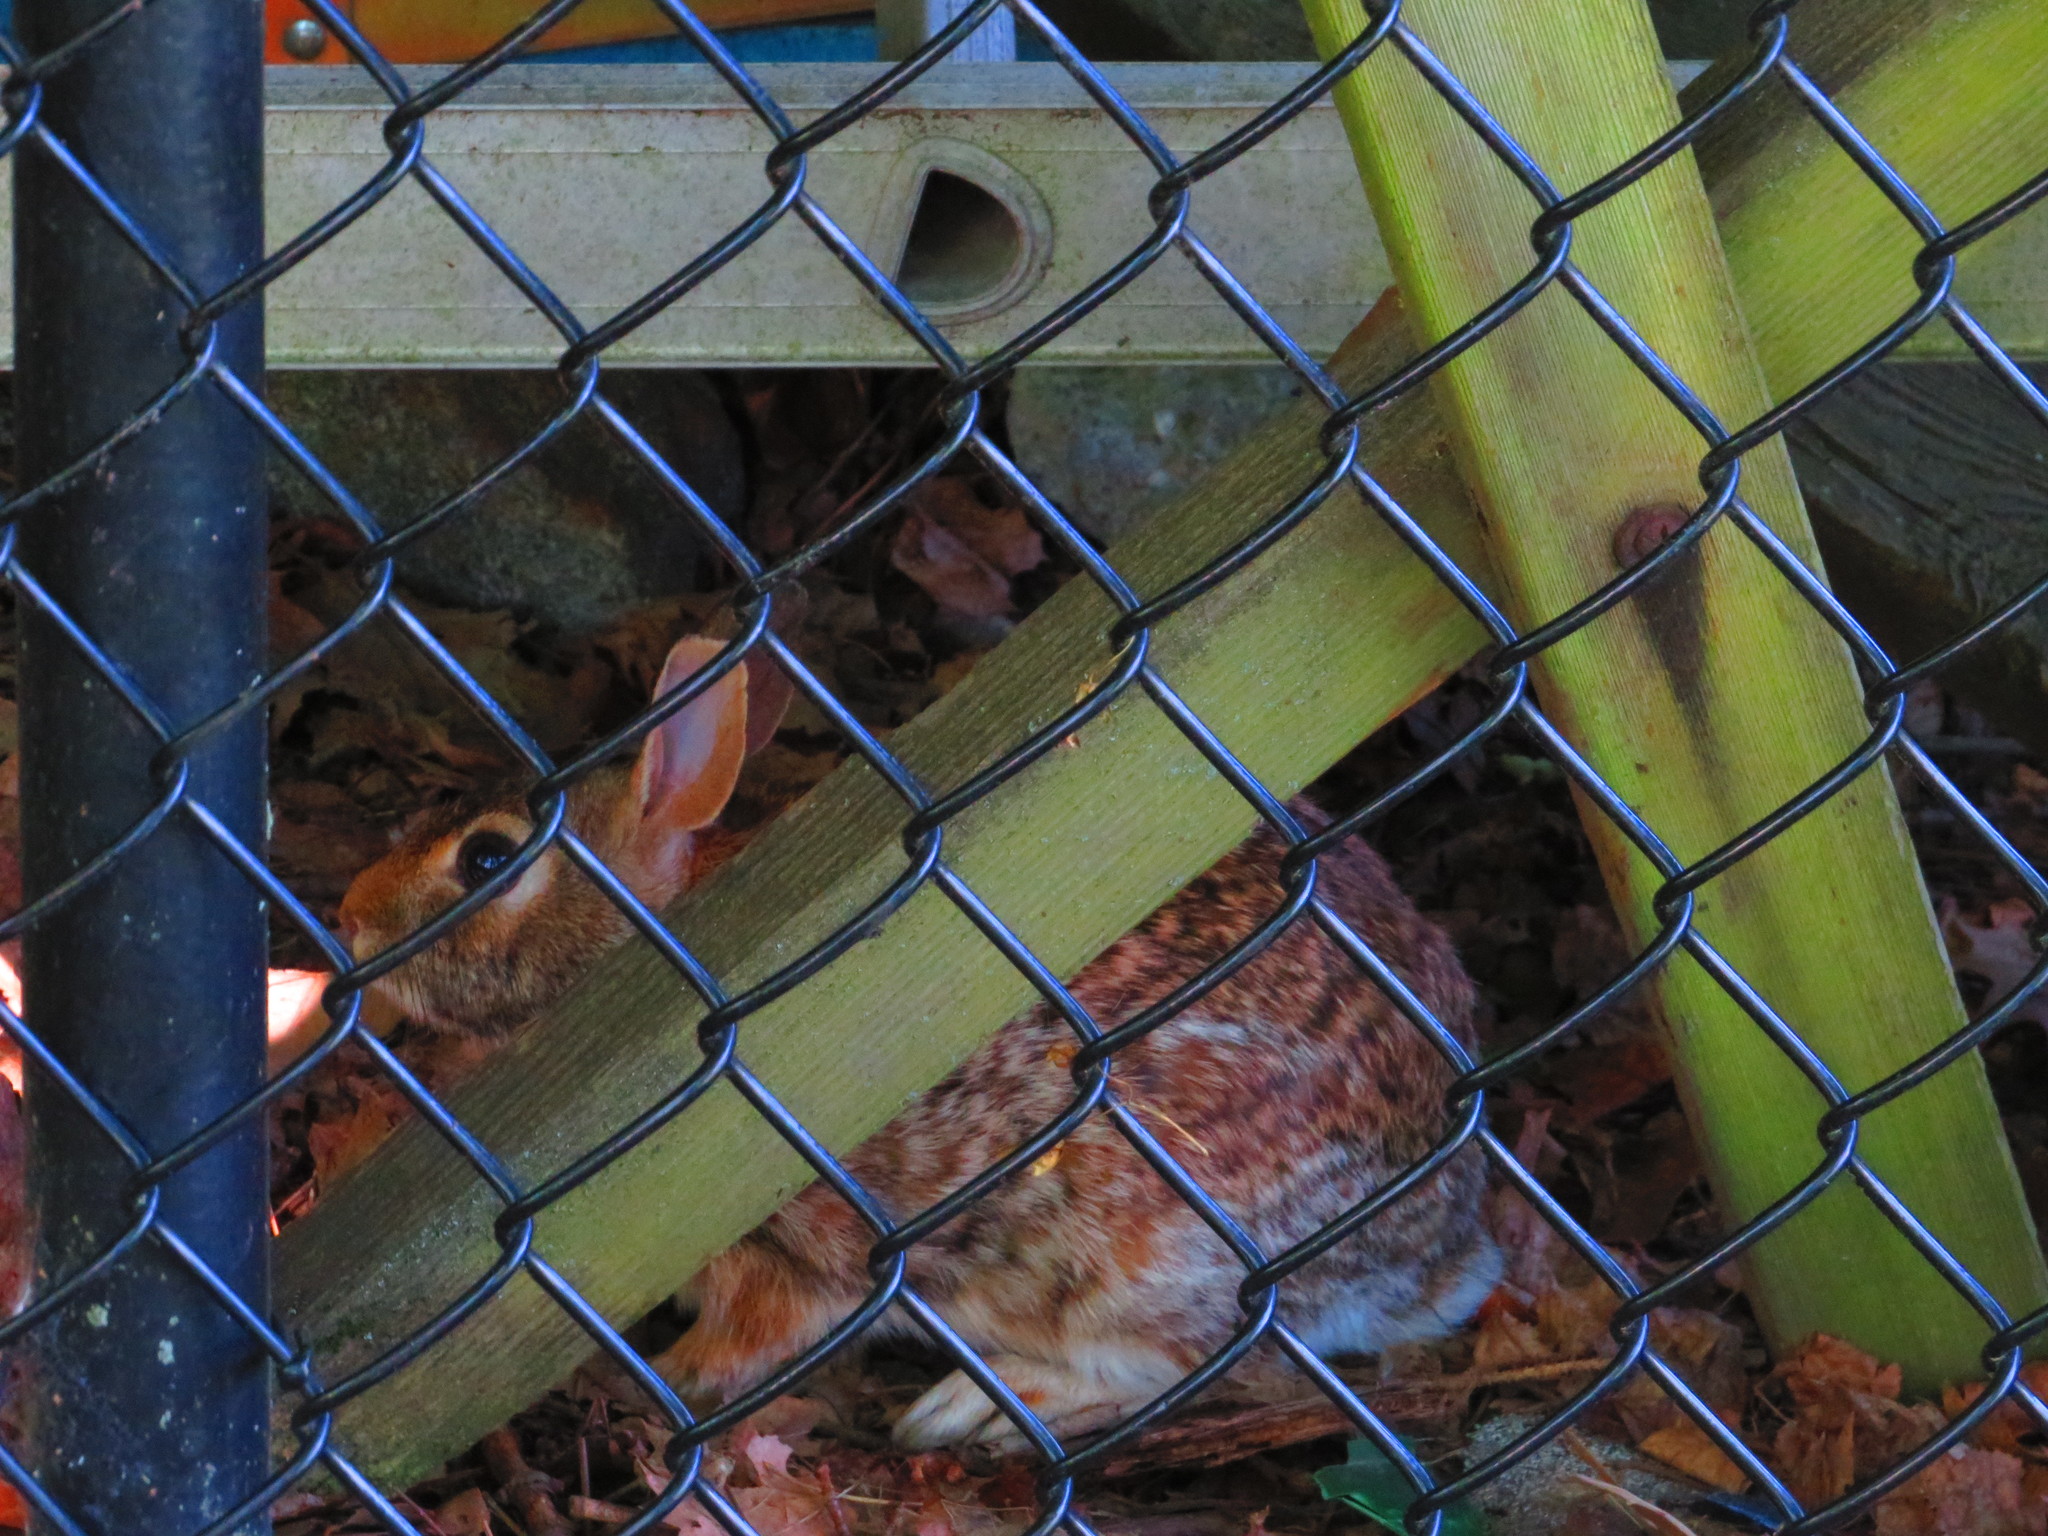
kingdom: Animalia
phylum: Chordata
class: Mammalia
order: Lagomorpha
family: Leporidae
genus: Sylvilagus
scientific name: Sylvilagus floridanus
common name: Eastern cottontail
